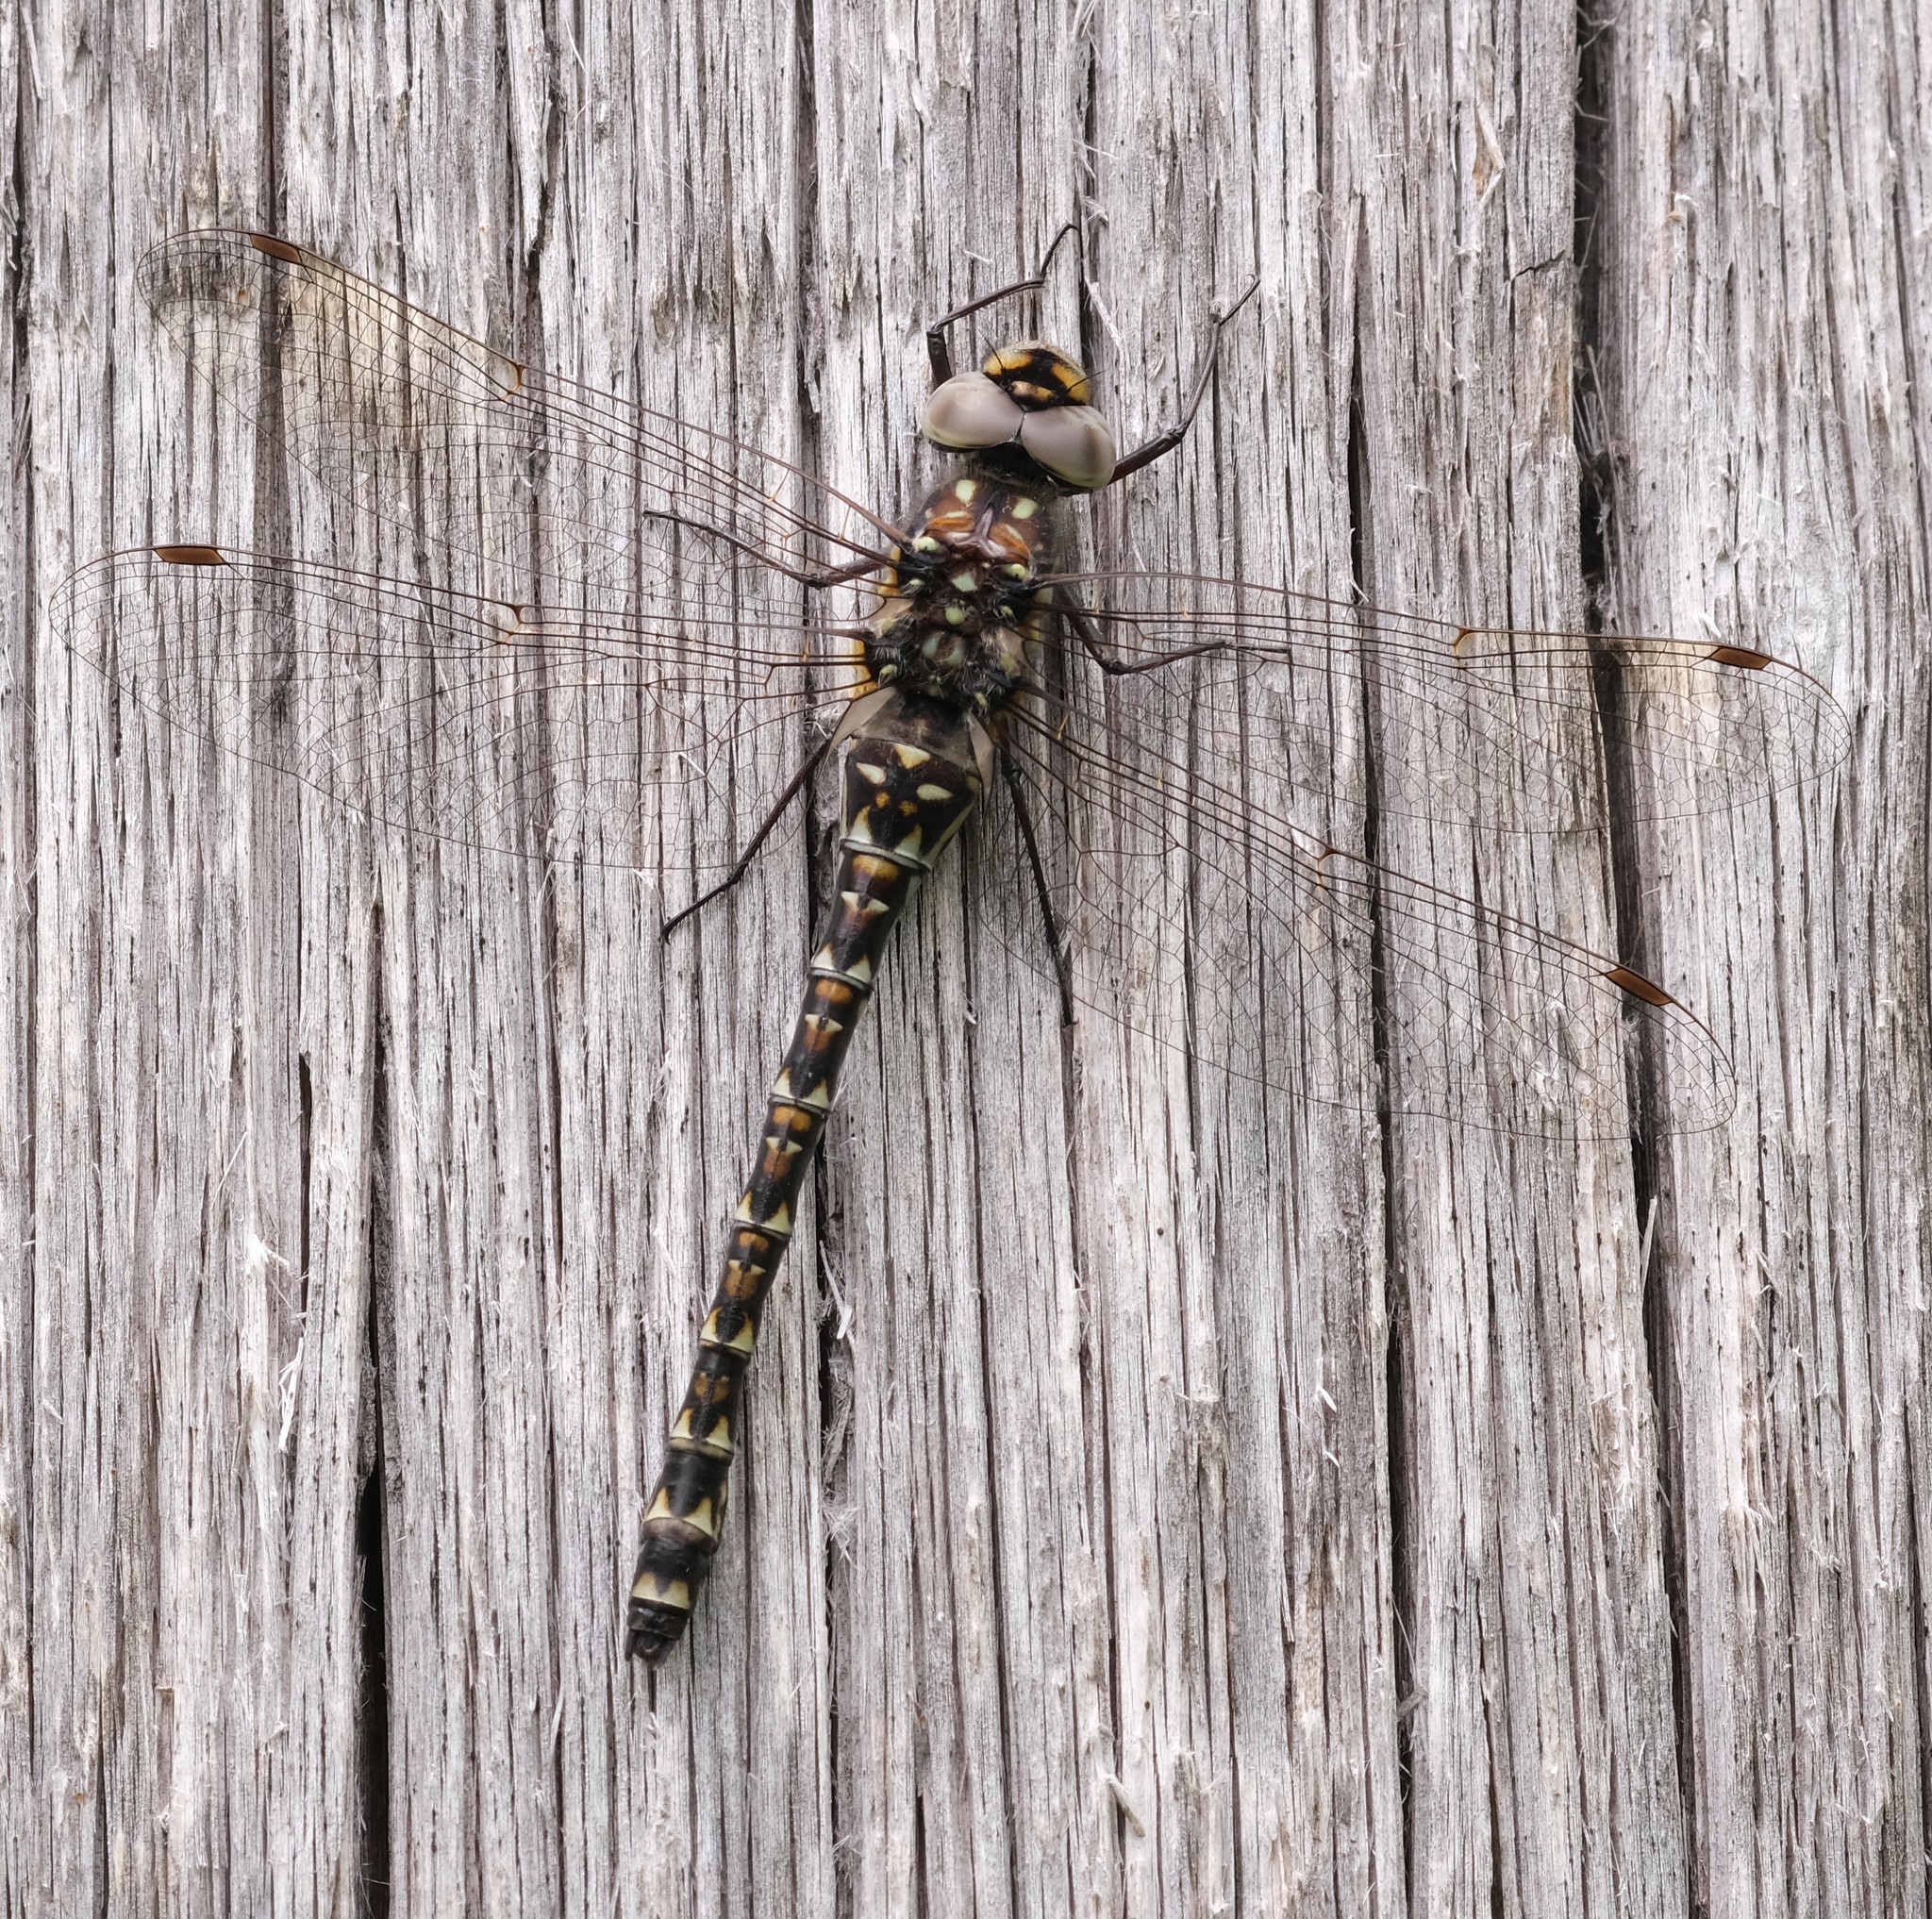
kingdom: Animalia
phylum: Arthropoda
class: Insecta
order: Odonata
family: Aeshnidae
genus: Gomphaeschna
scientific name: Gomphaeschna furcillata
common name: Harlequin darner
